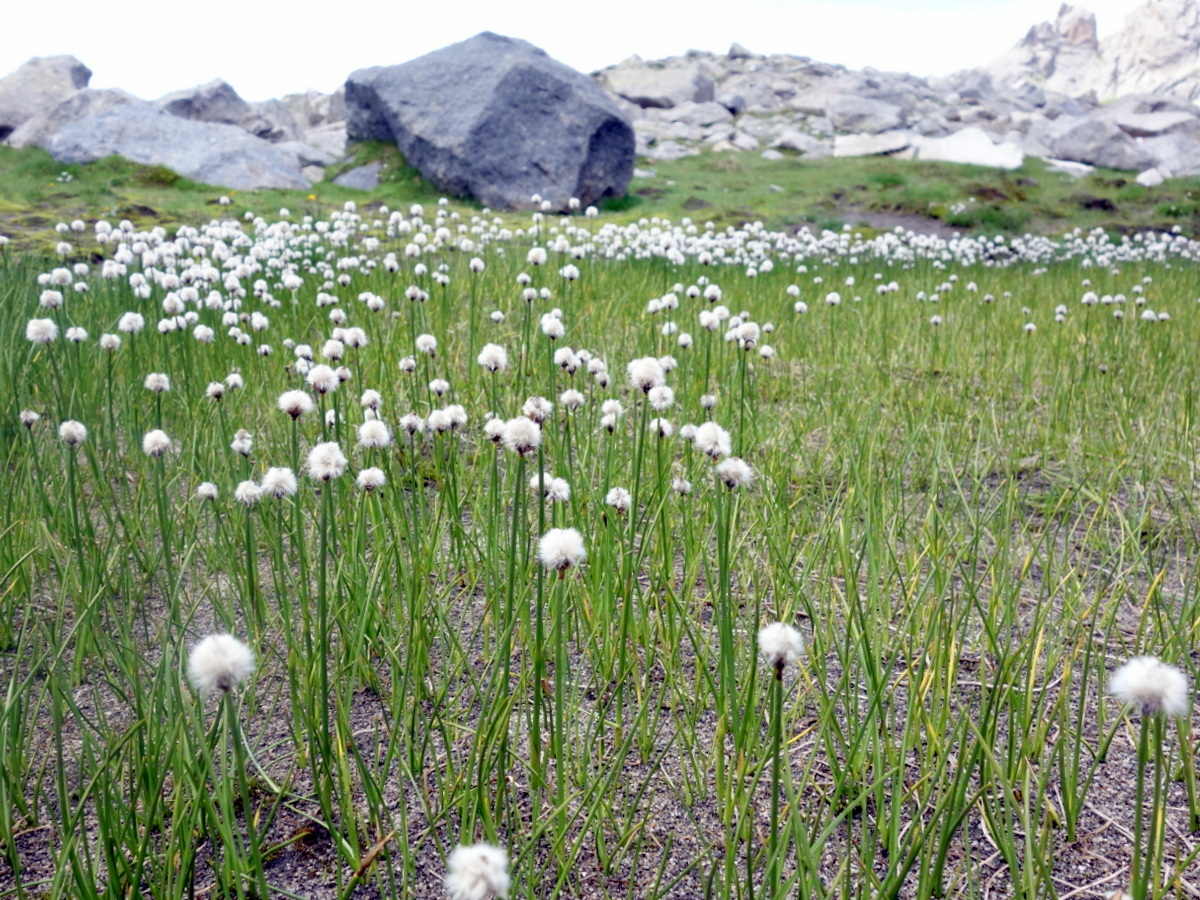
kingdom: Plantae
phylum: Tracheophyta
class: Liliopsida
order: Poales
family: Cyperaceae
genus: Eriophorum
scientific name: Eriophorum scheuchzeri
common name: Scheuchzer's cottongrass
